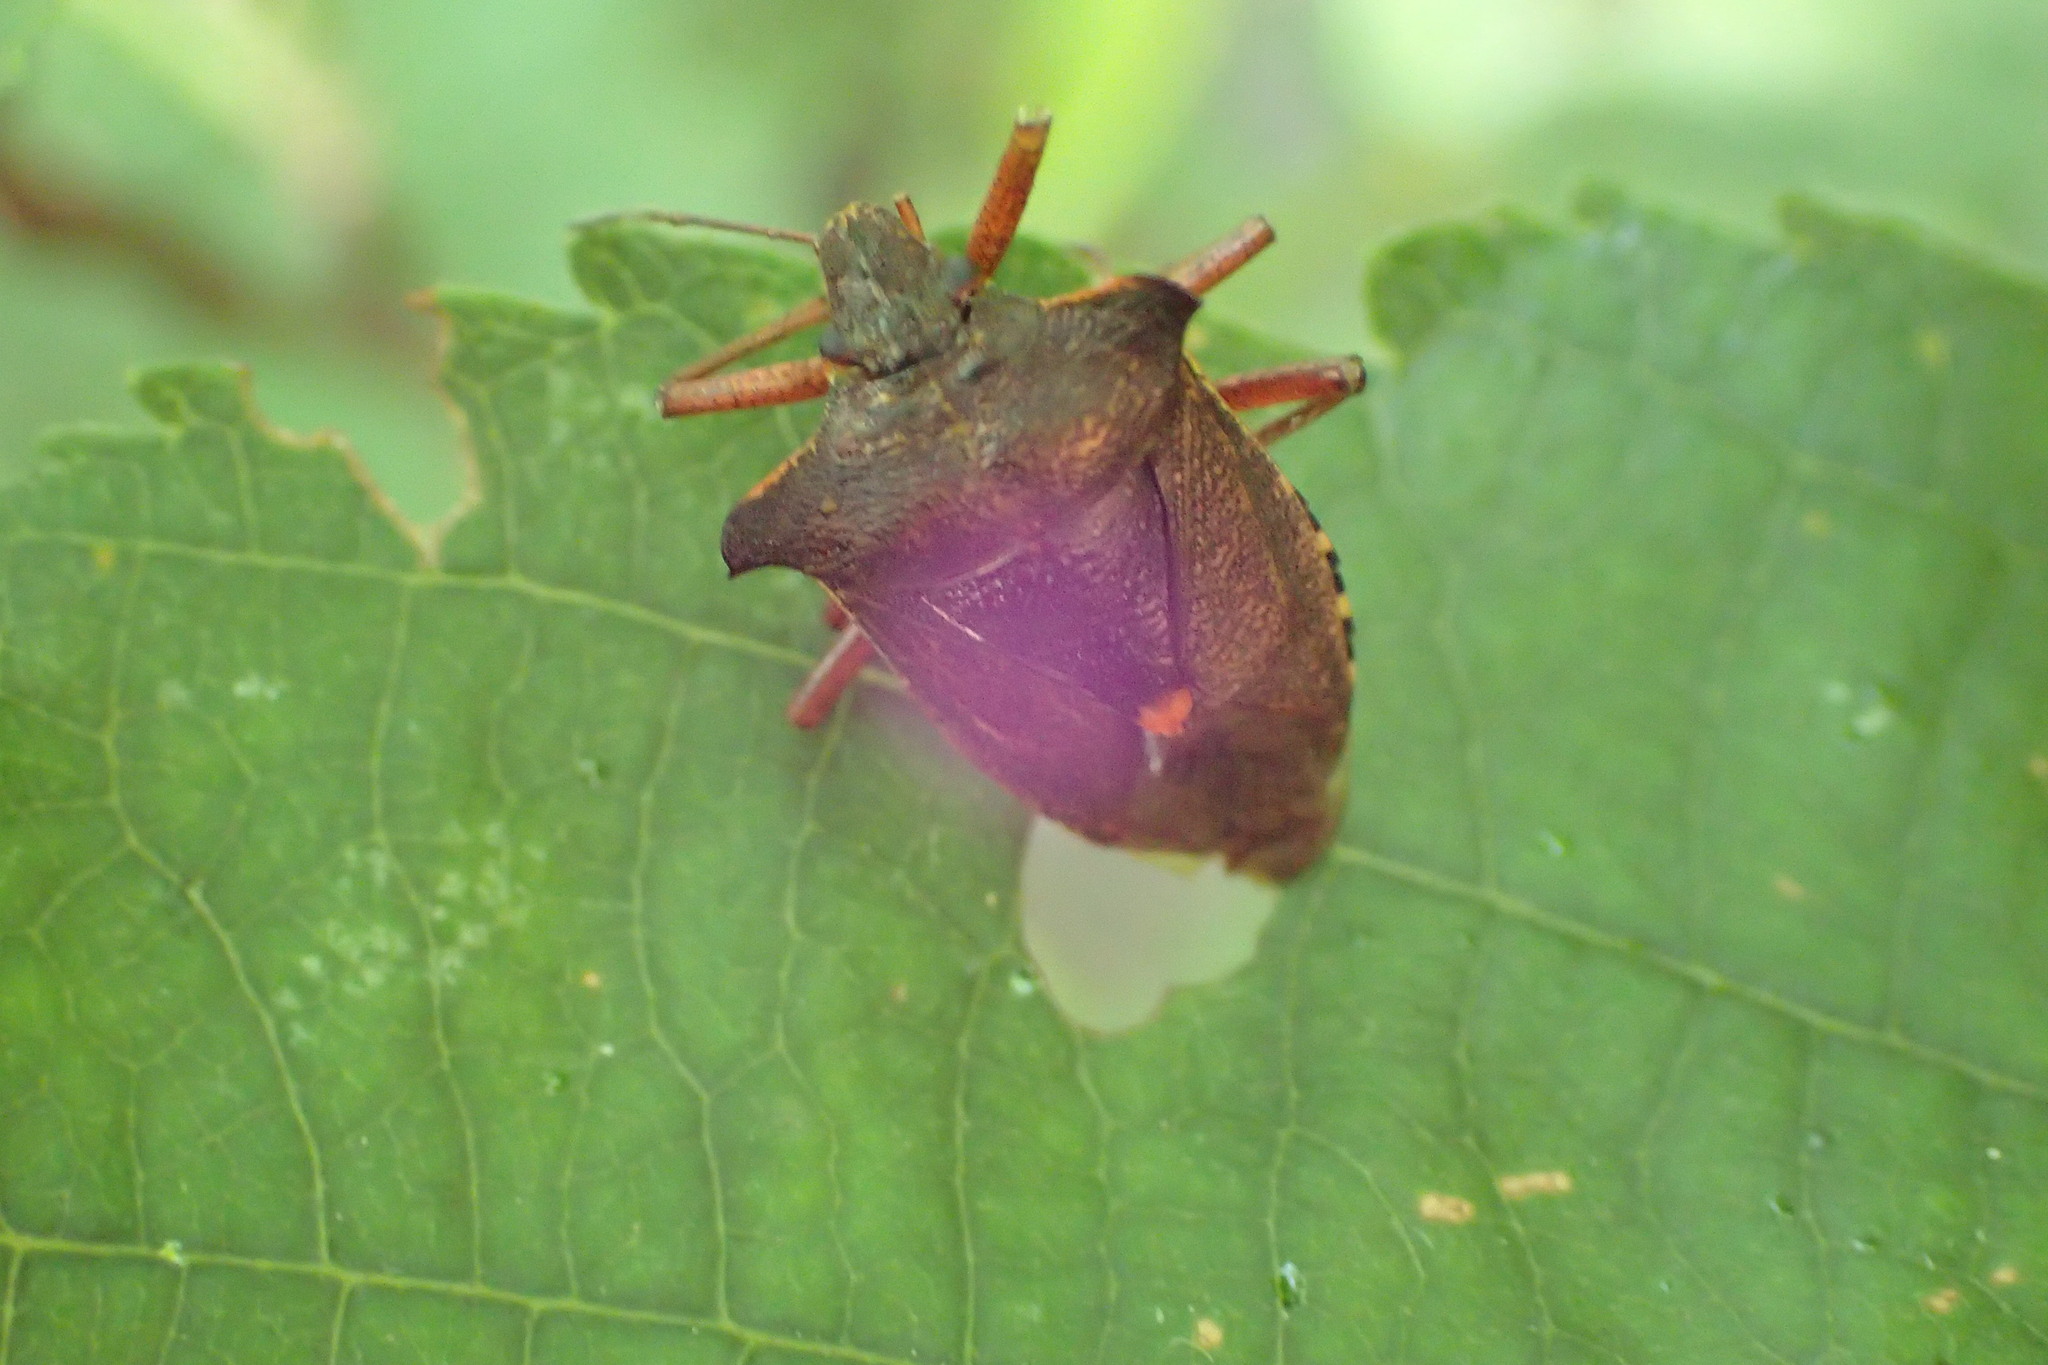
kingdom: Animalia
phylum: Arthropoda
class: Insecta
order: Hemiptera
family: Pentatomidae
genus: Pentatoma
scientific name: Pentatoma rufipes
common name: Forest bug
